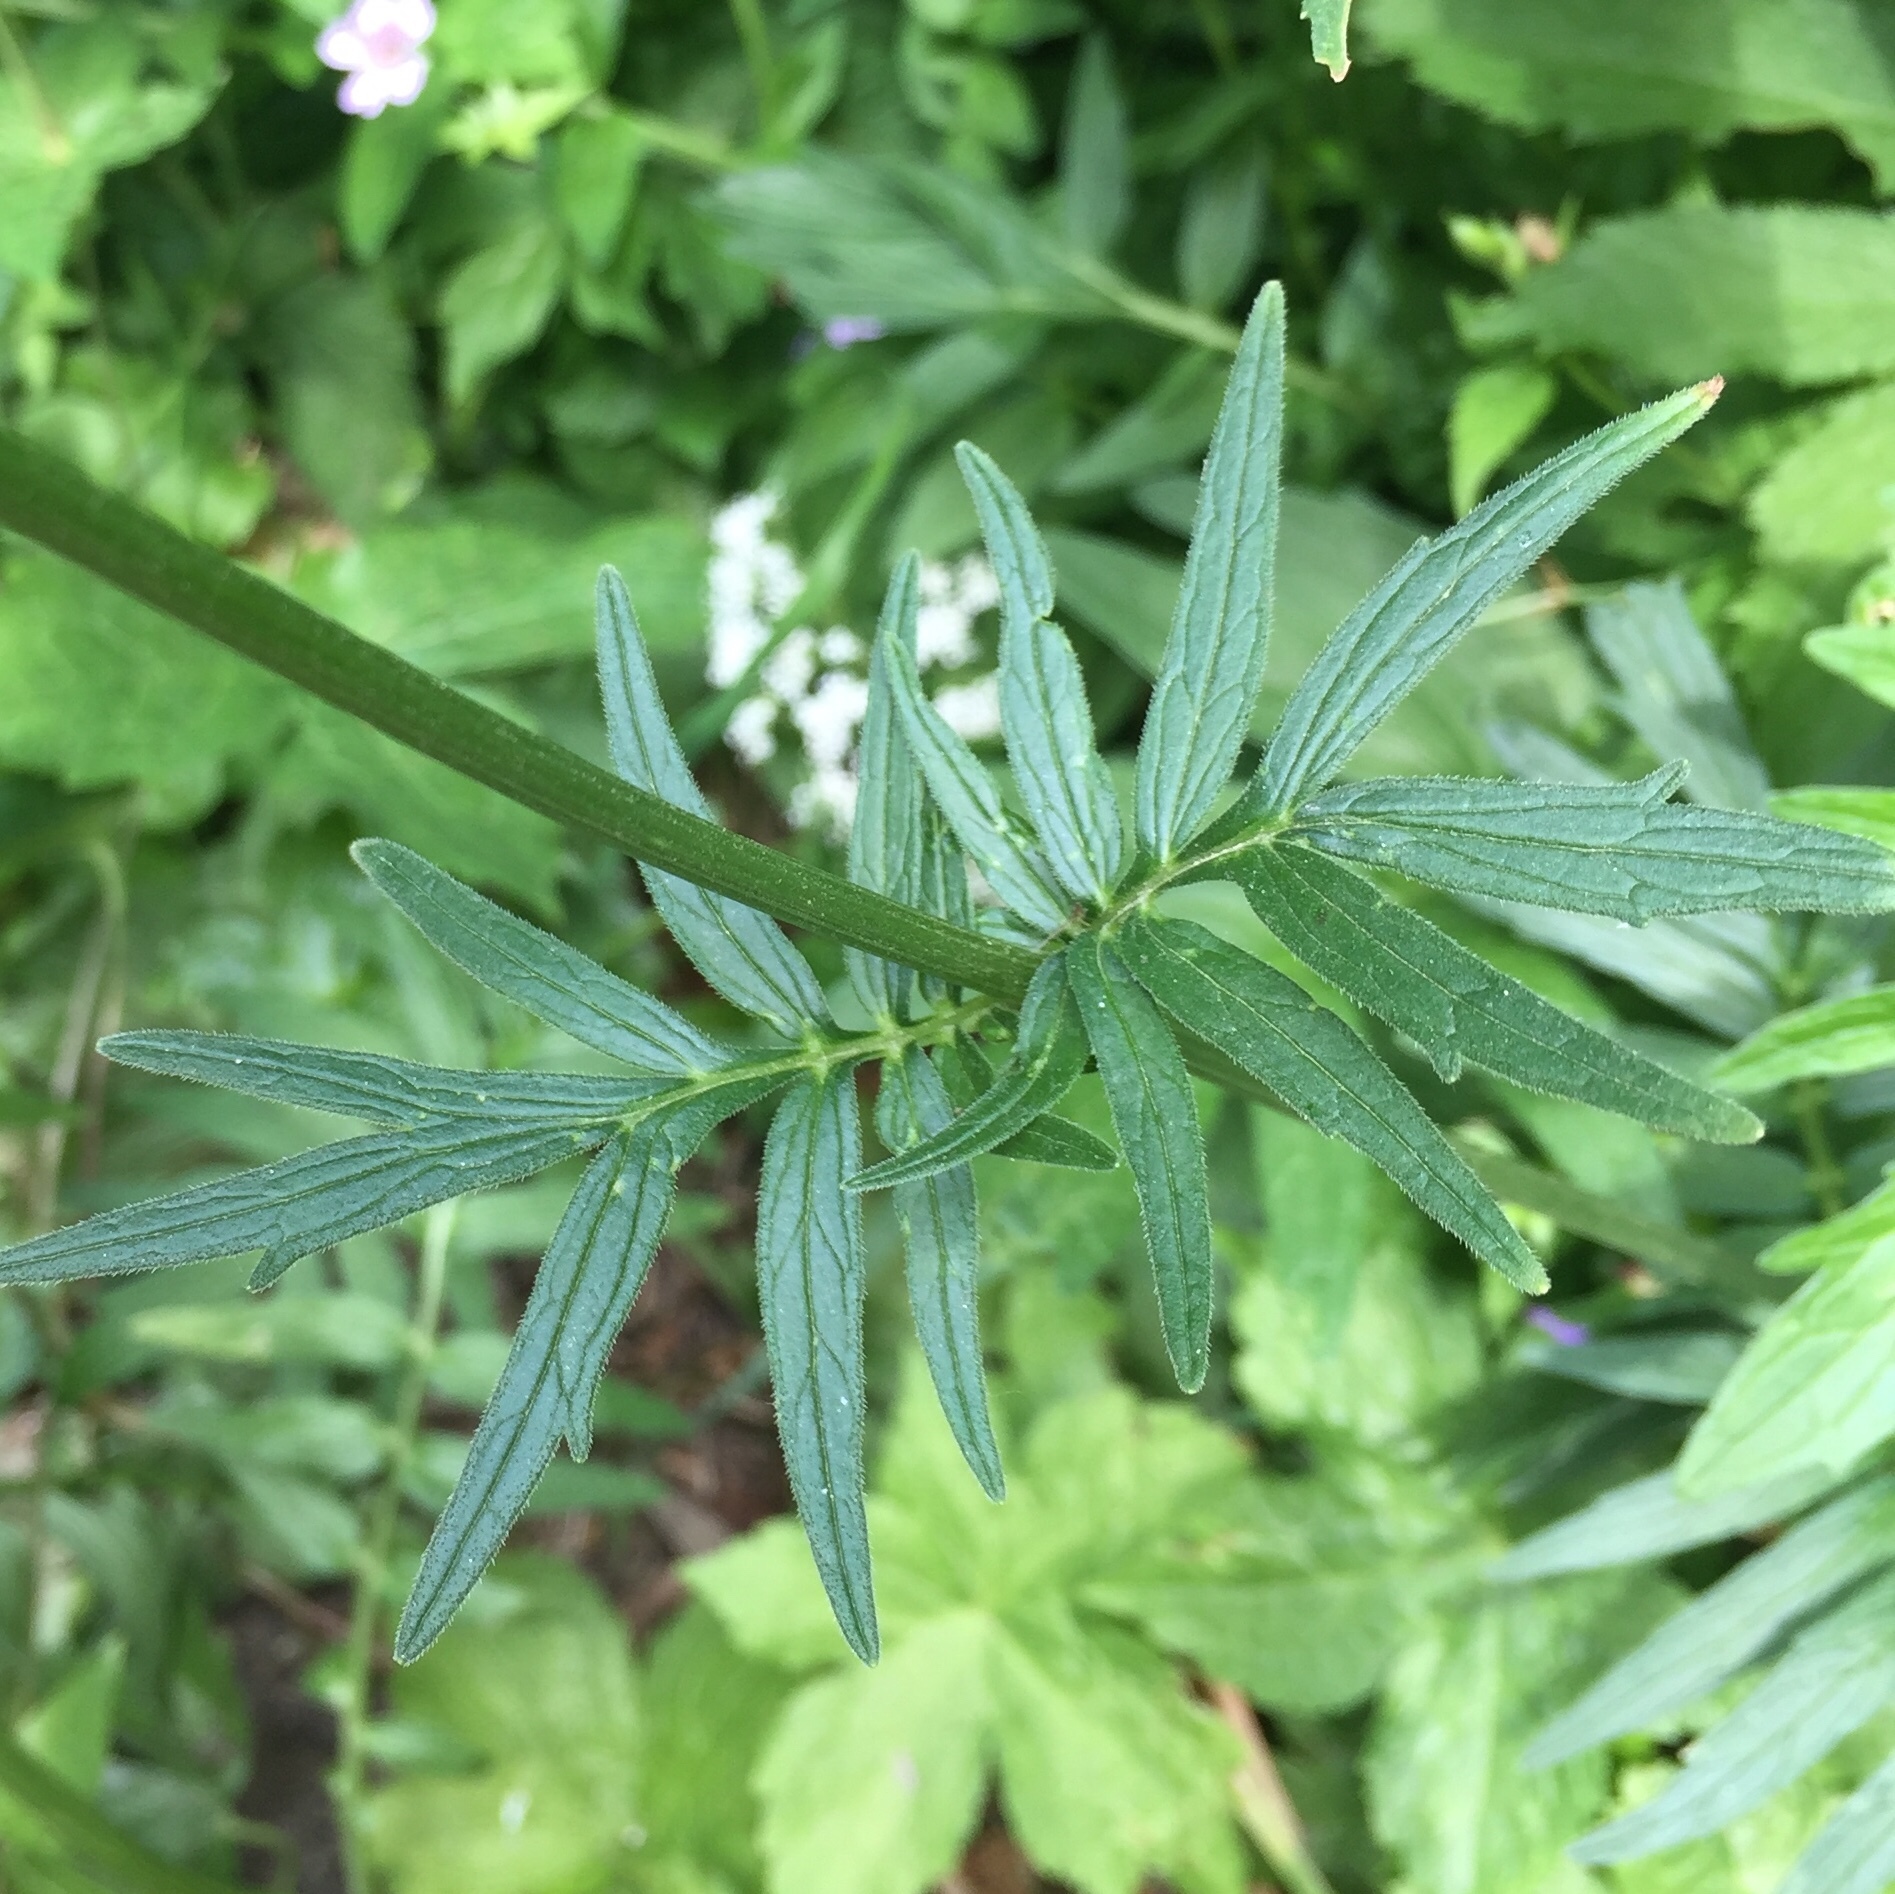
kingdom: Plantae
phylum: Tracheophyta
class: Magnoliopsida
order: Dipsacales
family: Caprifoliaceae
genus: Valeriana
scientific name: Valeriana officinalis
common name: Common valerian
